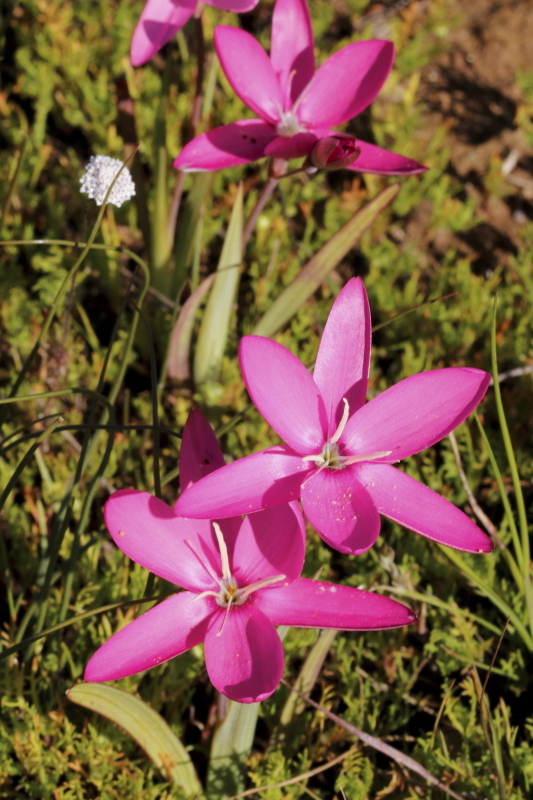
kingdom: Plantae
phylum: Tracheophyta
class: Liliopsida
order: Asparagales
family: Iridaceae
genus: Hesperantha
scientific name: Hesperantha pauciflora
